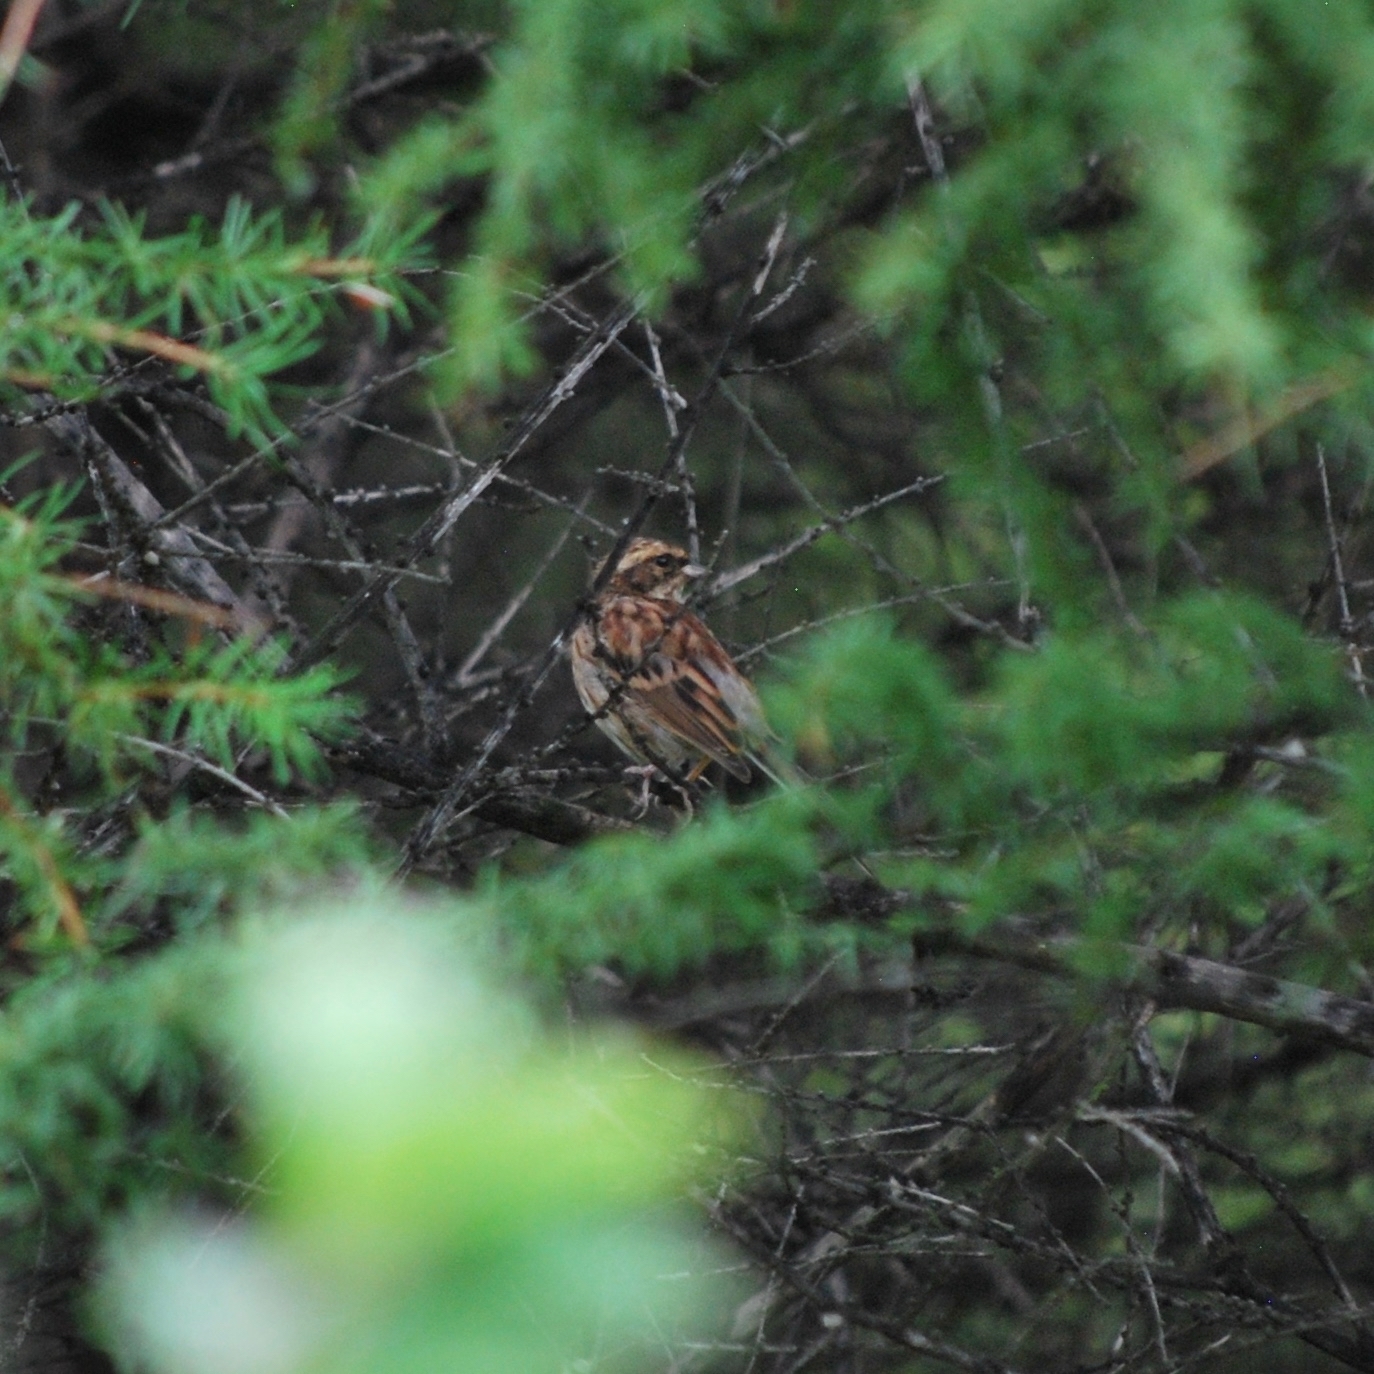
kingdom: Animalia
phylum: Chordata
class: Aves
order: Passeriformes
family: Emberizidae
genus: Emberiza
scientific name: Emberiza elegans
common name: Yellow-throated bunting
